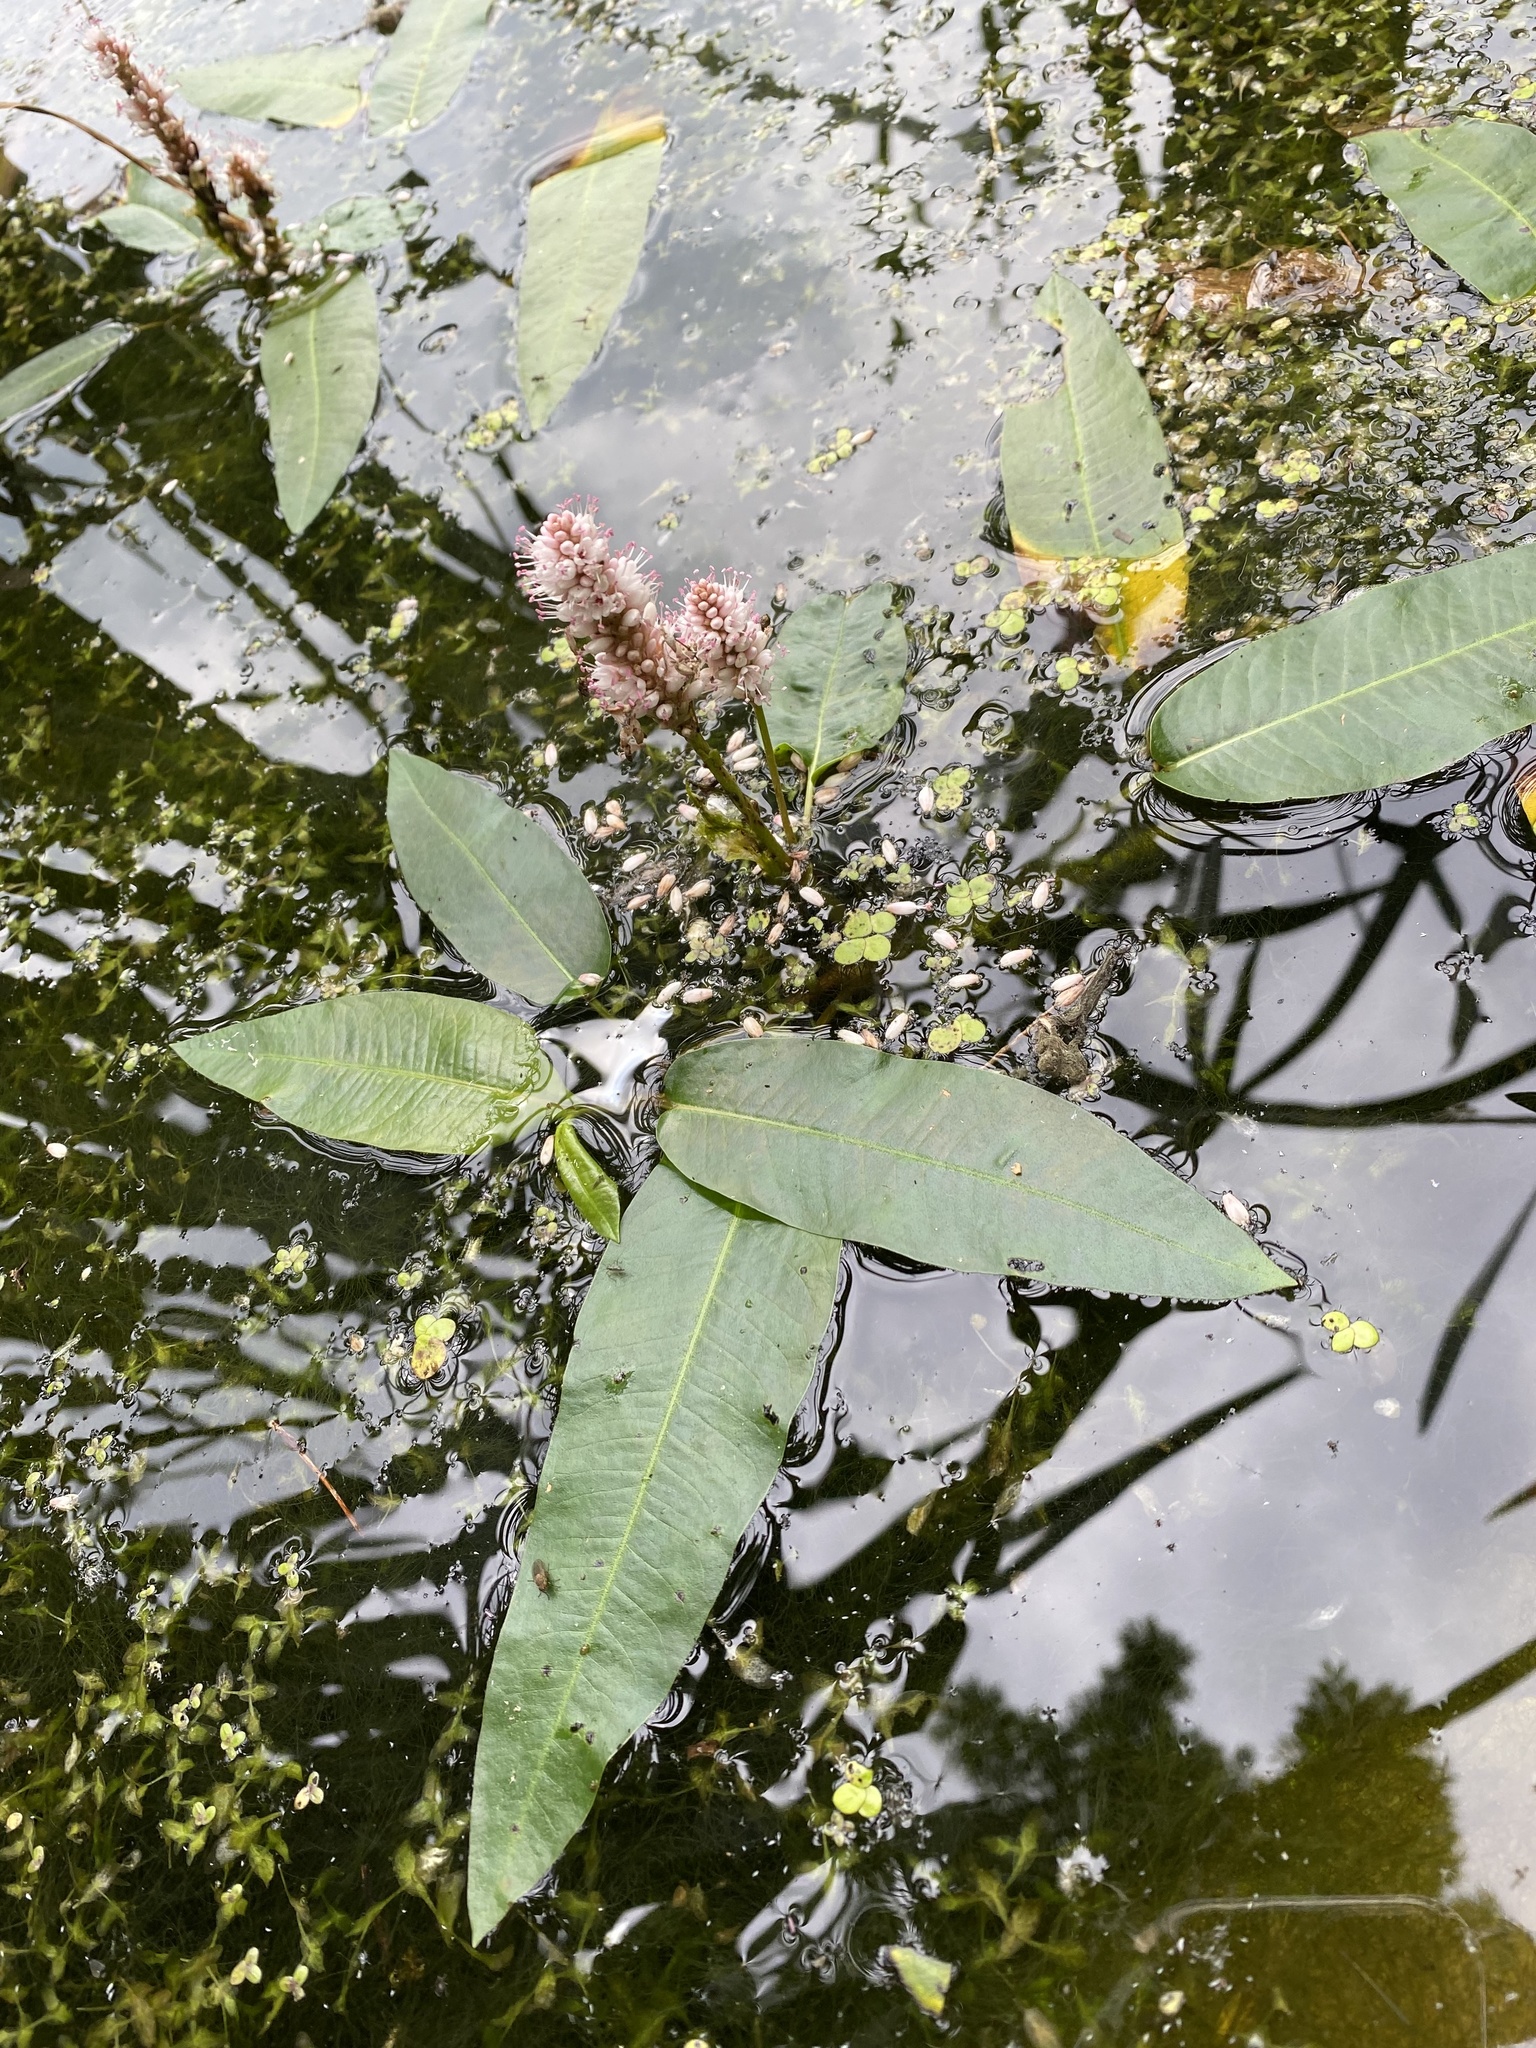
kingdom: Plantae
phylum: Tracheophyta
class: Magnoliopsida
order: Caryophyllales
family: Polygonaceae
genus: Persicaria
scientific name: Persicaria amphibia
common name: Amphibious bistort
